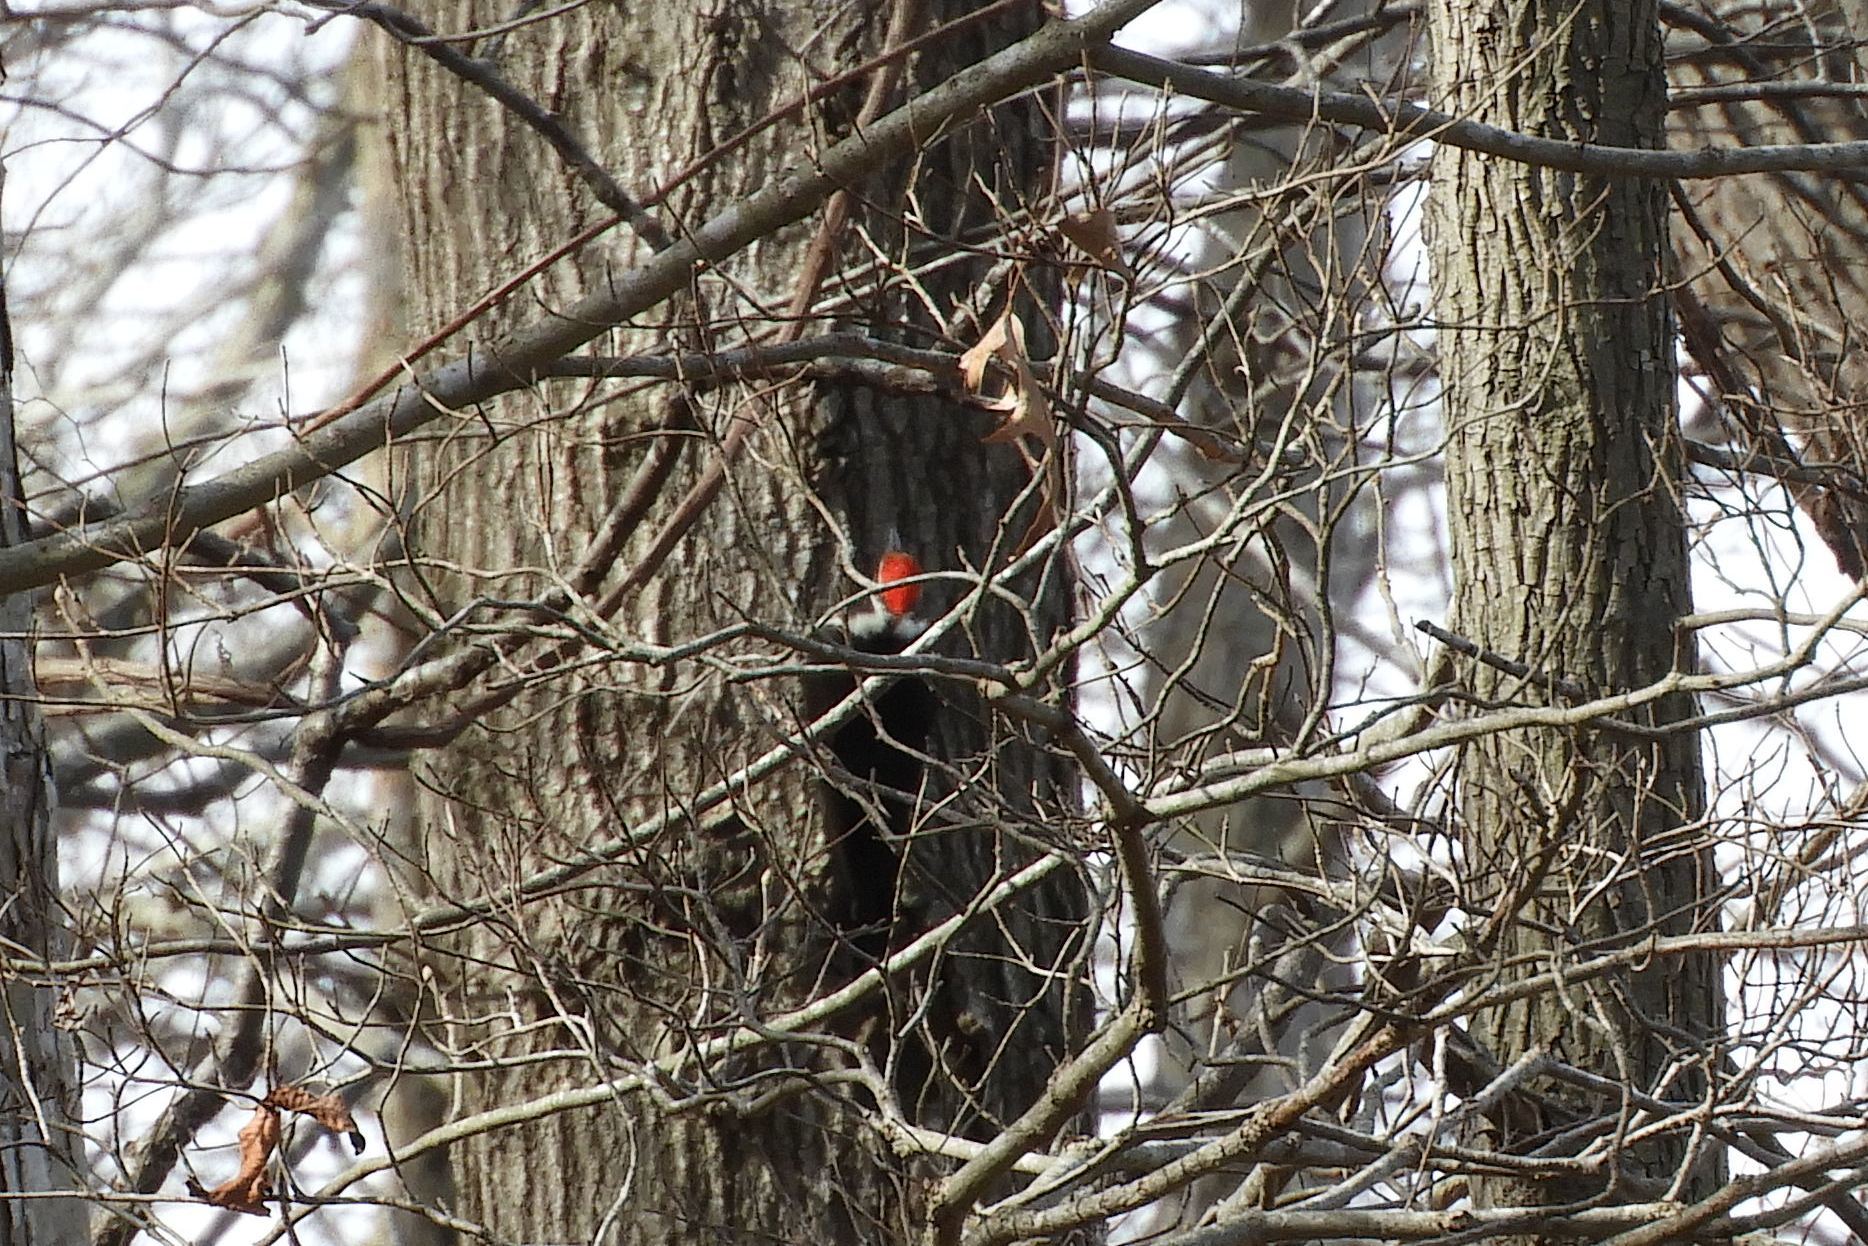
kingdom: Animalia
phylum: Chordata
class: Aves
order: Piciformes
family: Picidae
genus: Dryocopus
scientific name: Dryocopus pileatus
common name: Pileated woodpecker
